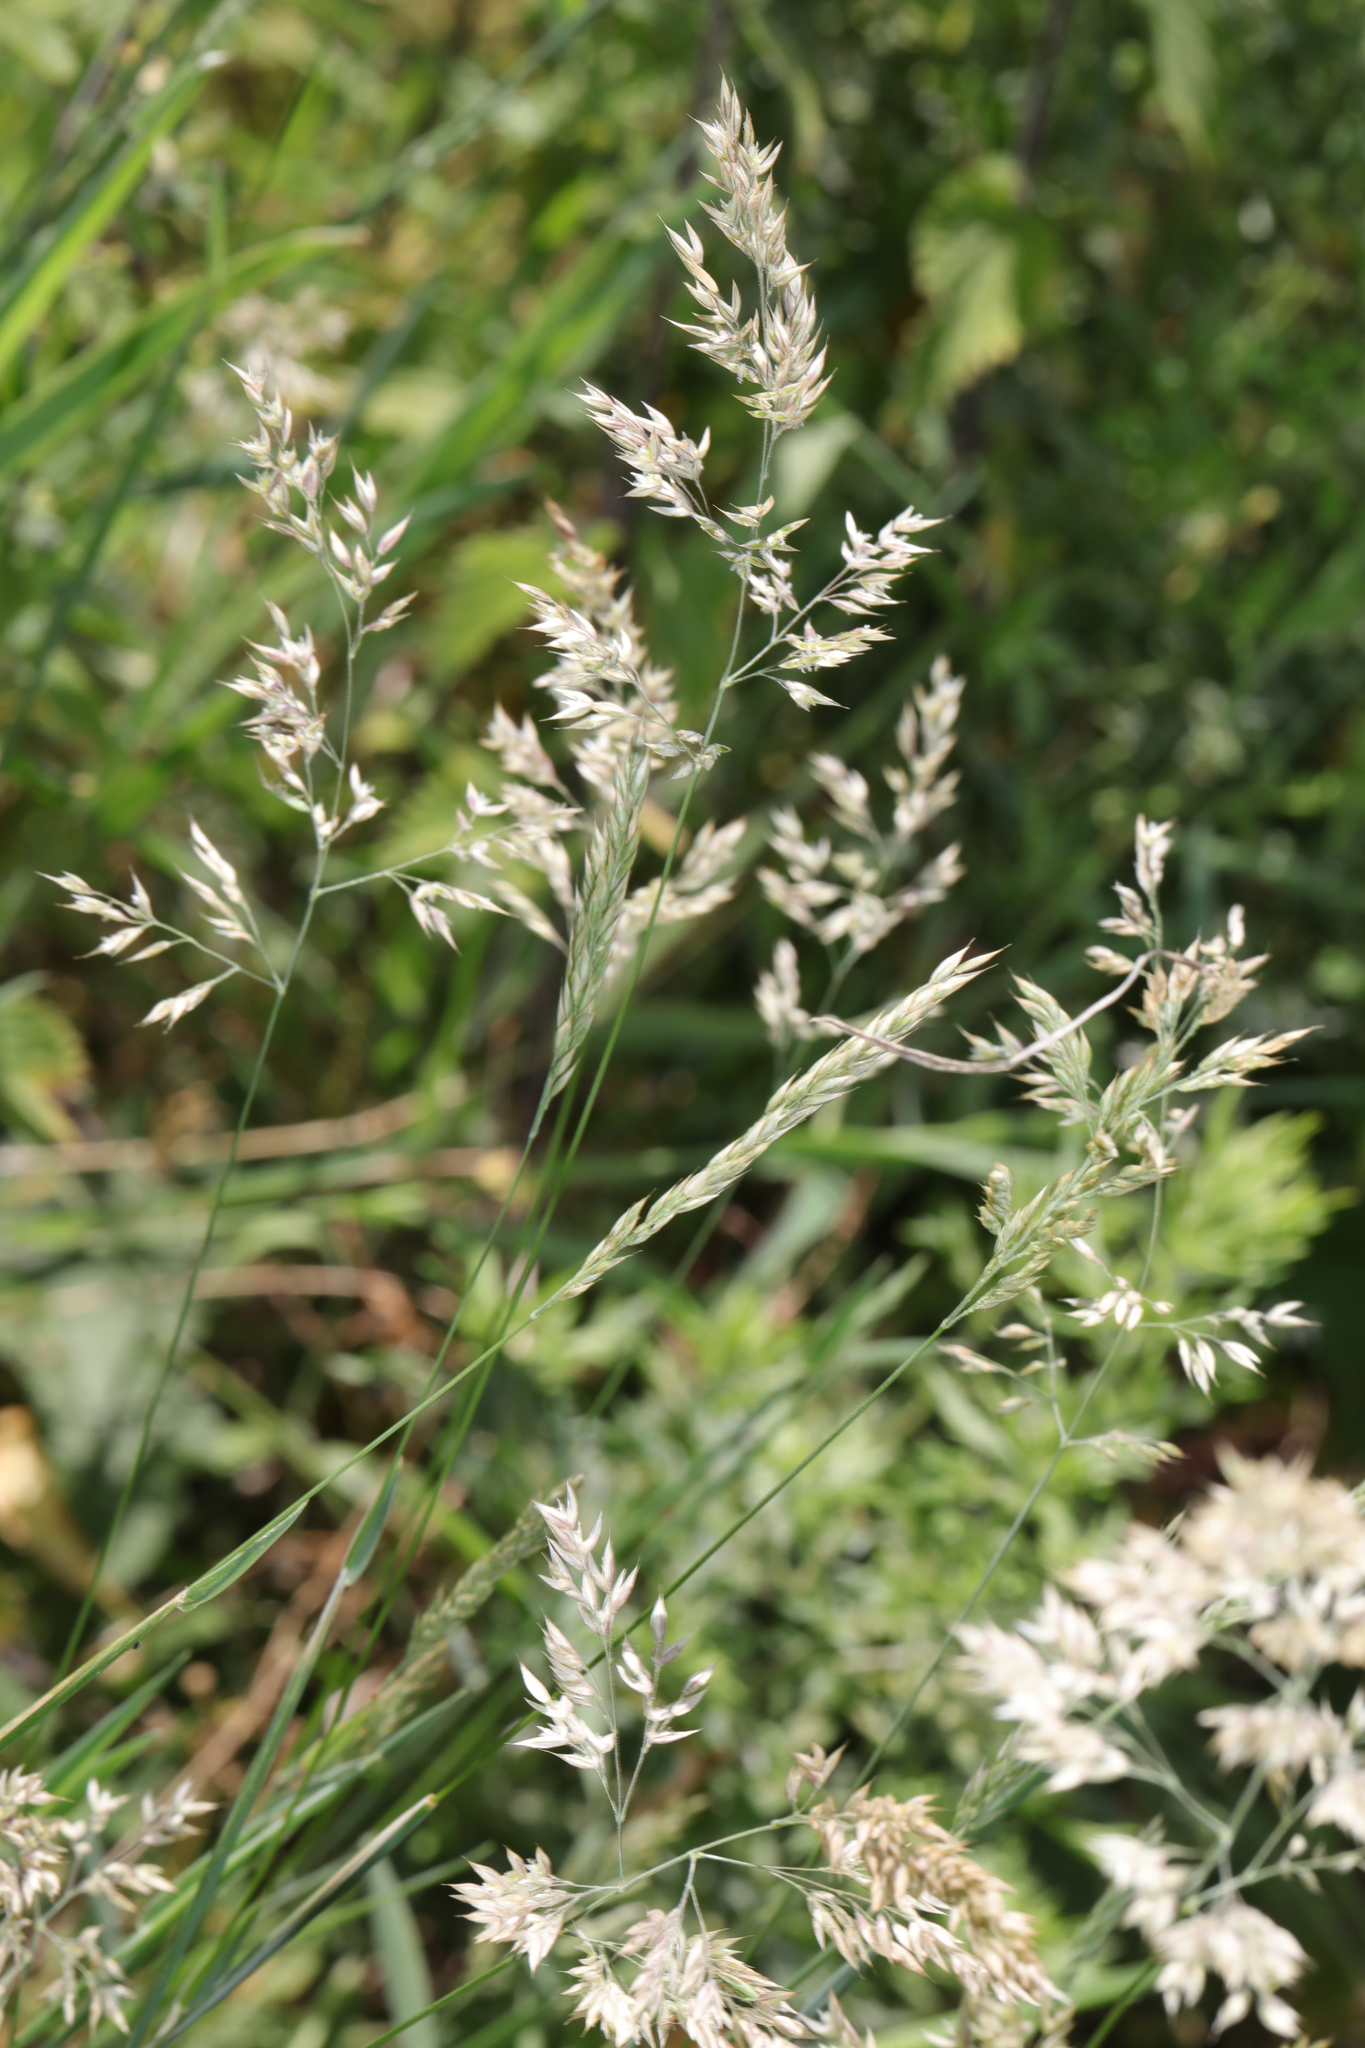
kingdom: Plantae
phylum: Tracheophyta
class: Liliopsida
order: Poales
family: Poaceae
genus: Holcus
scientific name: Holcus lanatus
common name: Yorkshire-fog
